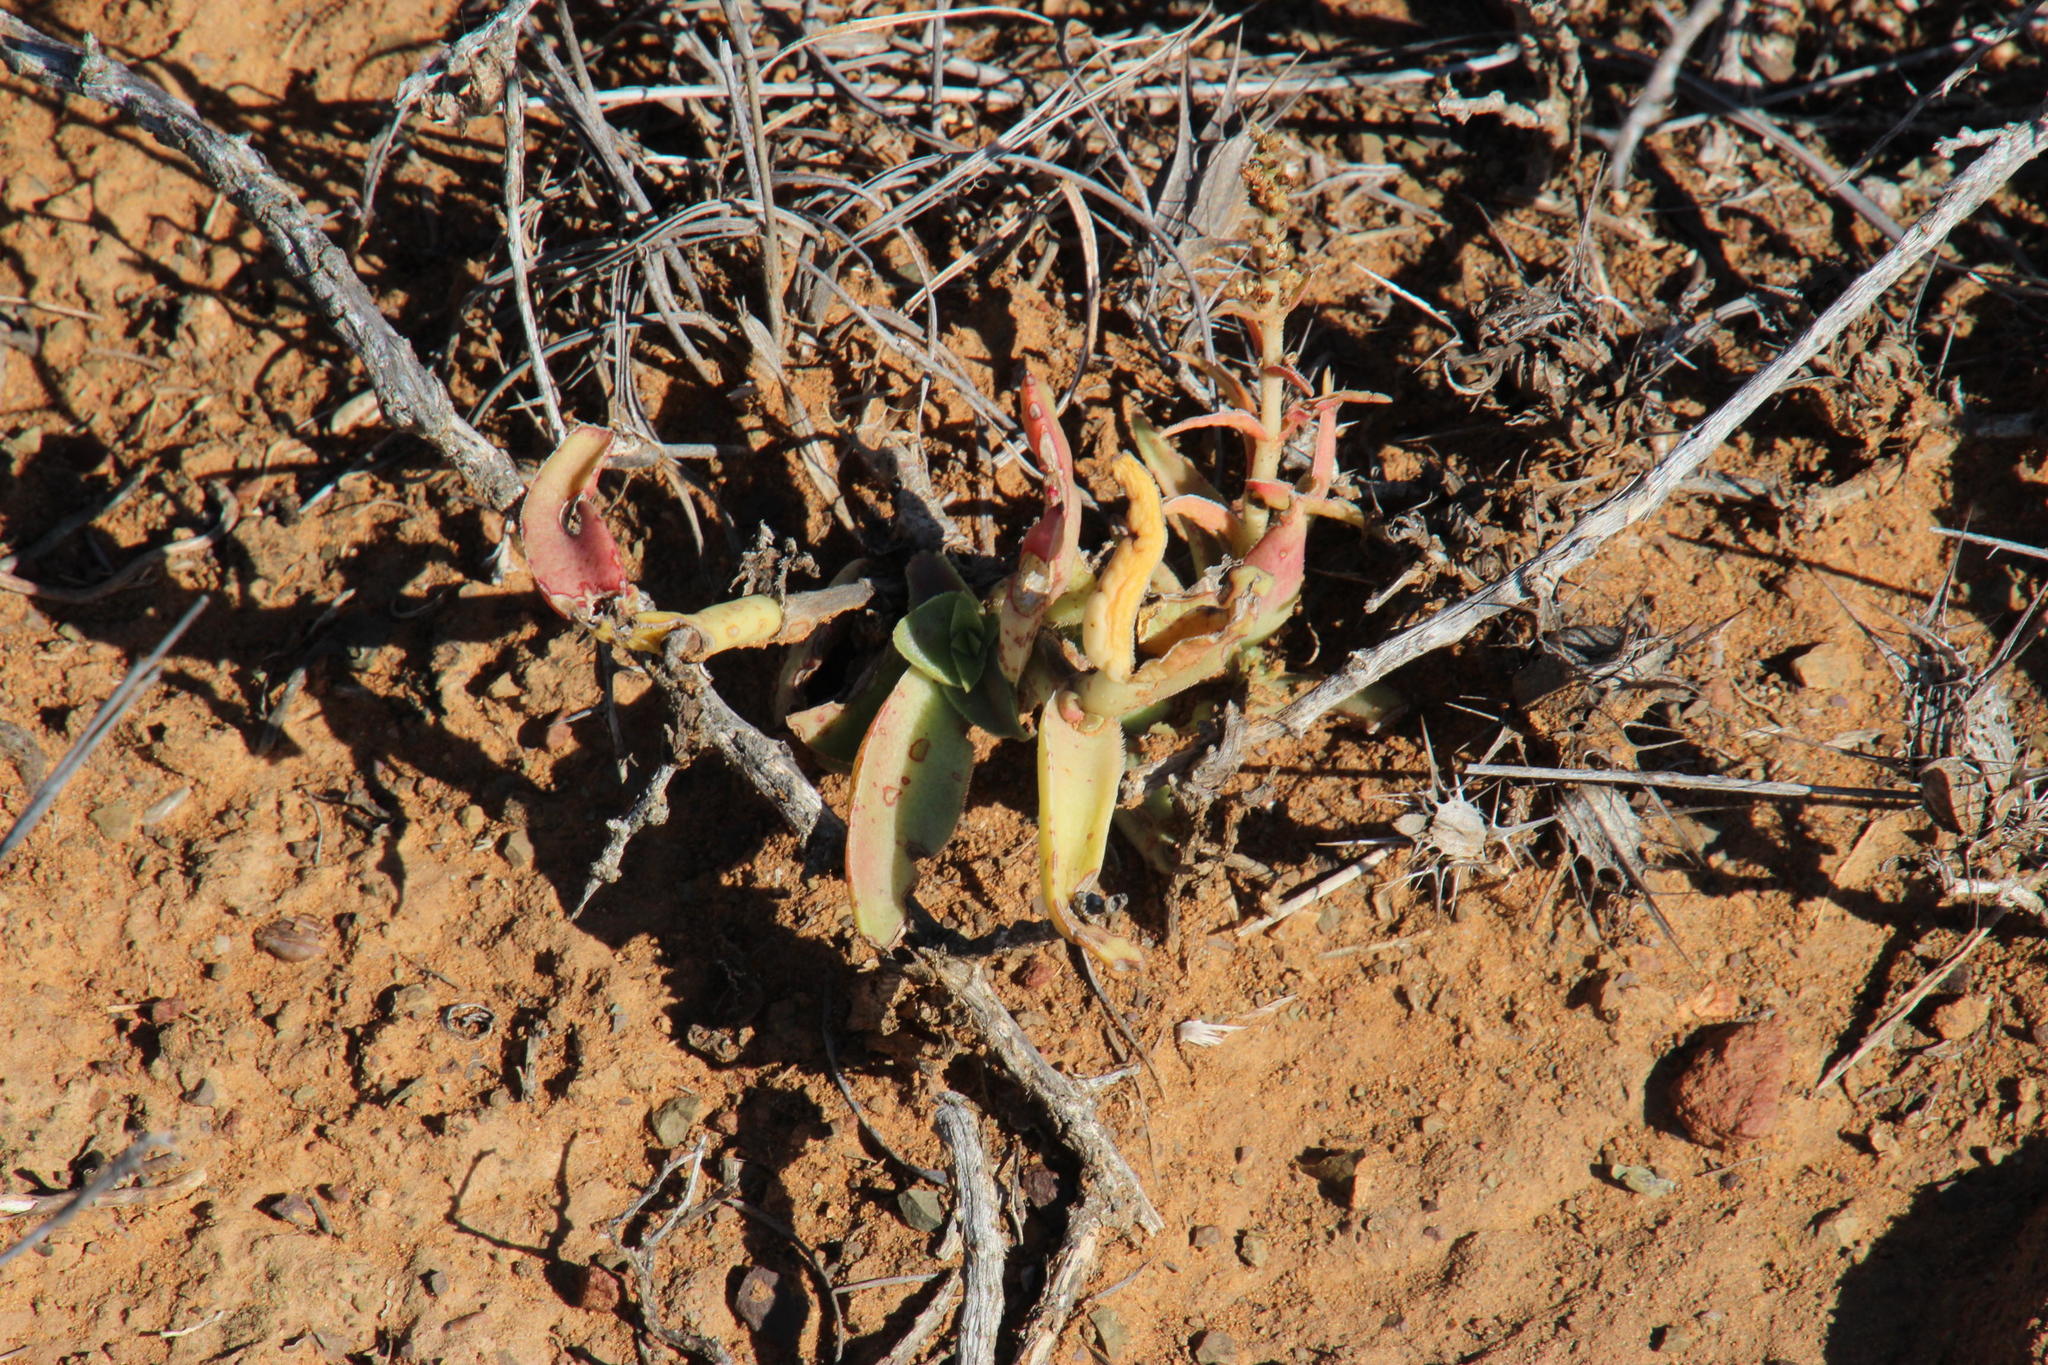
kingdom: Plantae
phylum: Tracheophyta
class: Magnoliopsida
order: Saxifragales
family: Crassulaceae
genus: Crassula
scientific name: Crassula capitella
